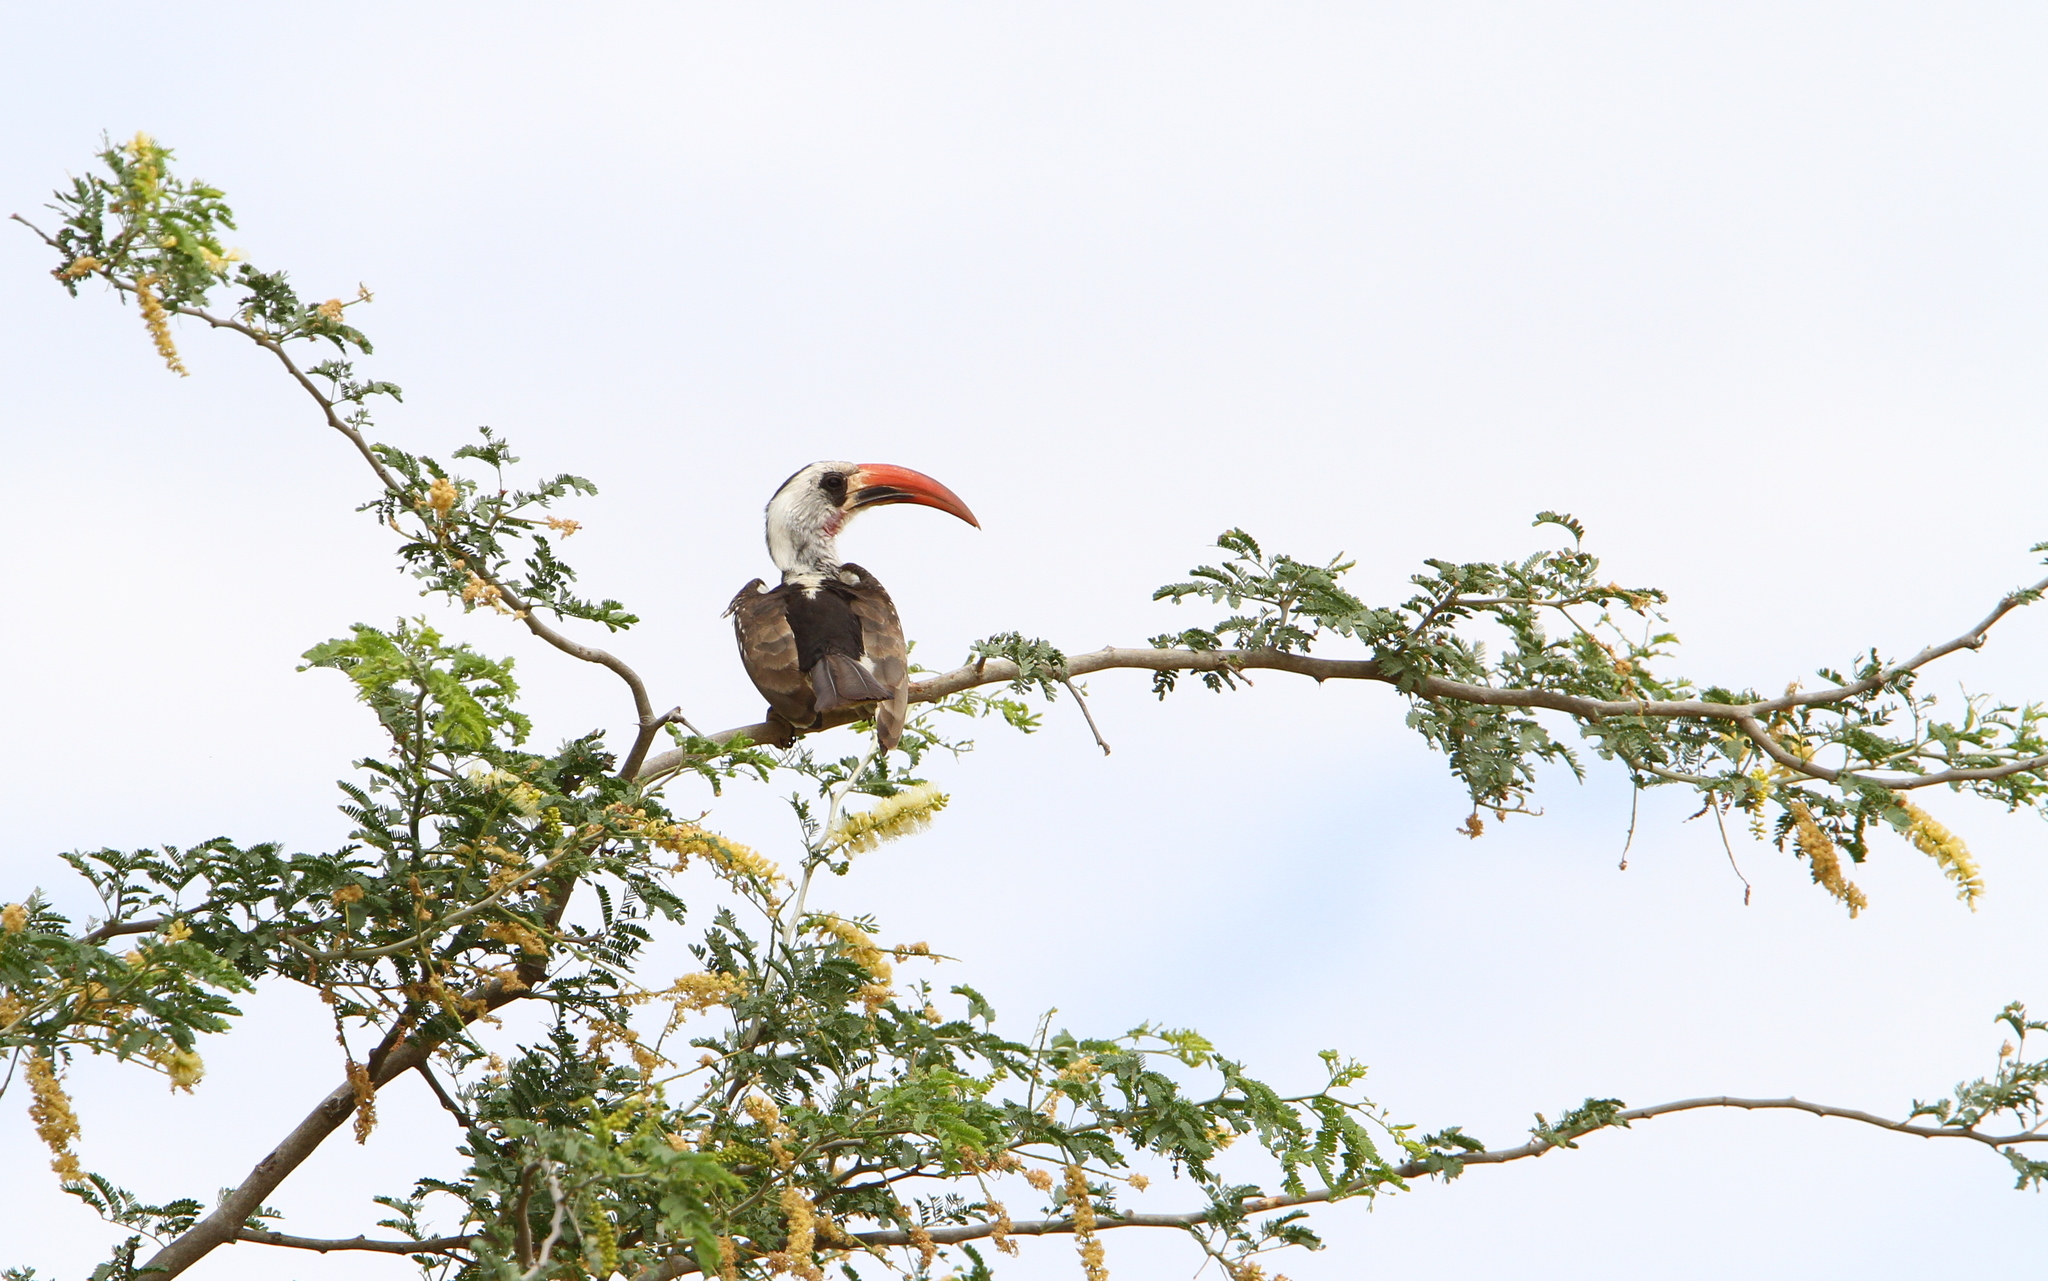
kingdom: Animalia
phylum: Chordata
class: Aves
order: Bucerotiformes
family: Bucerotidae
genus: Tockus
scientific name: Tockus kempi
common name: Western red-billed hornbill
